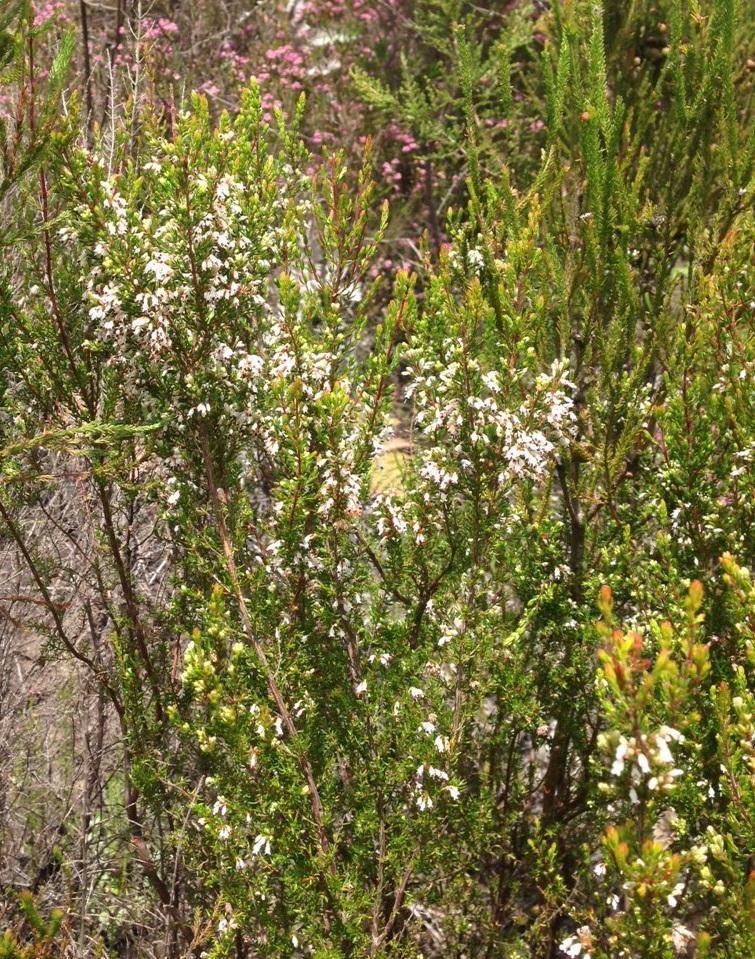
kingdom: Plantae
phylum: Tracheophyta
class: Magnoliopsida
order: Ericales
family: Ericaceae
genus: Erica
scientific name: Erica fuscescens
